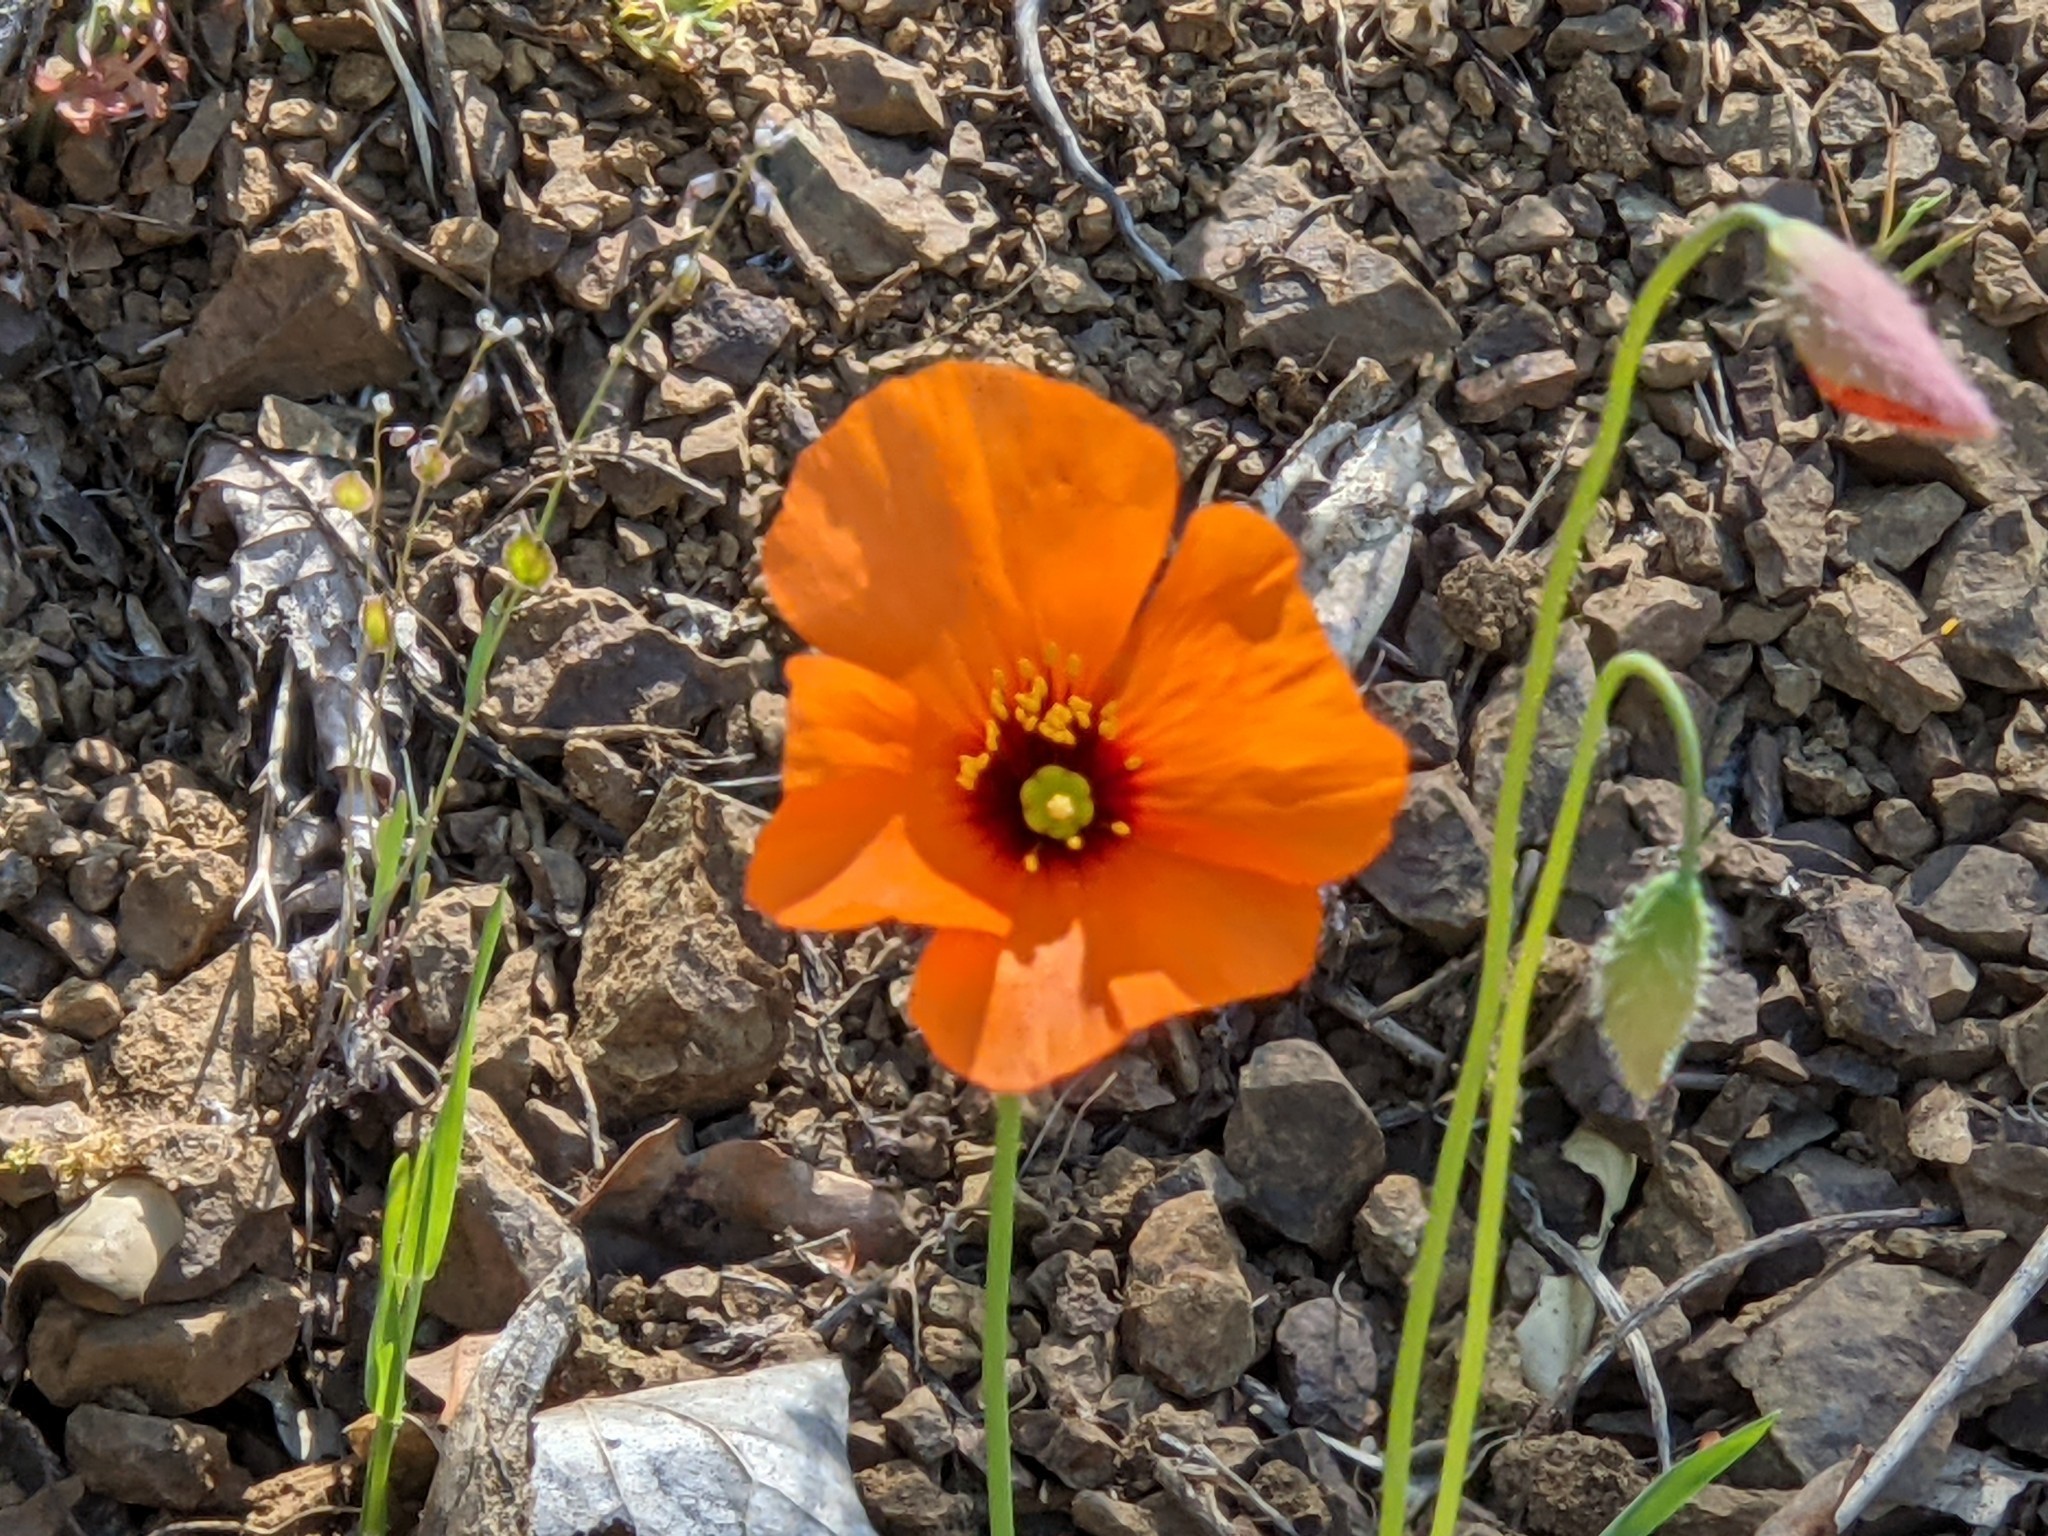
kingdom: Plantae
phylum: Tracheophyta
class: Magnoliopsida
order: Ranunculales
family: Papaveraceae
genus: Stylomecon
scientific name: Stylomecon heterophylla
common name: Flaming-poppy
